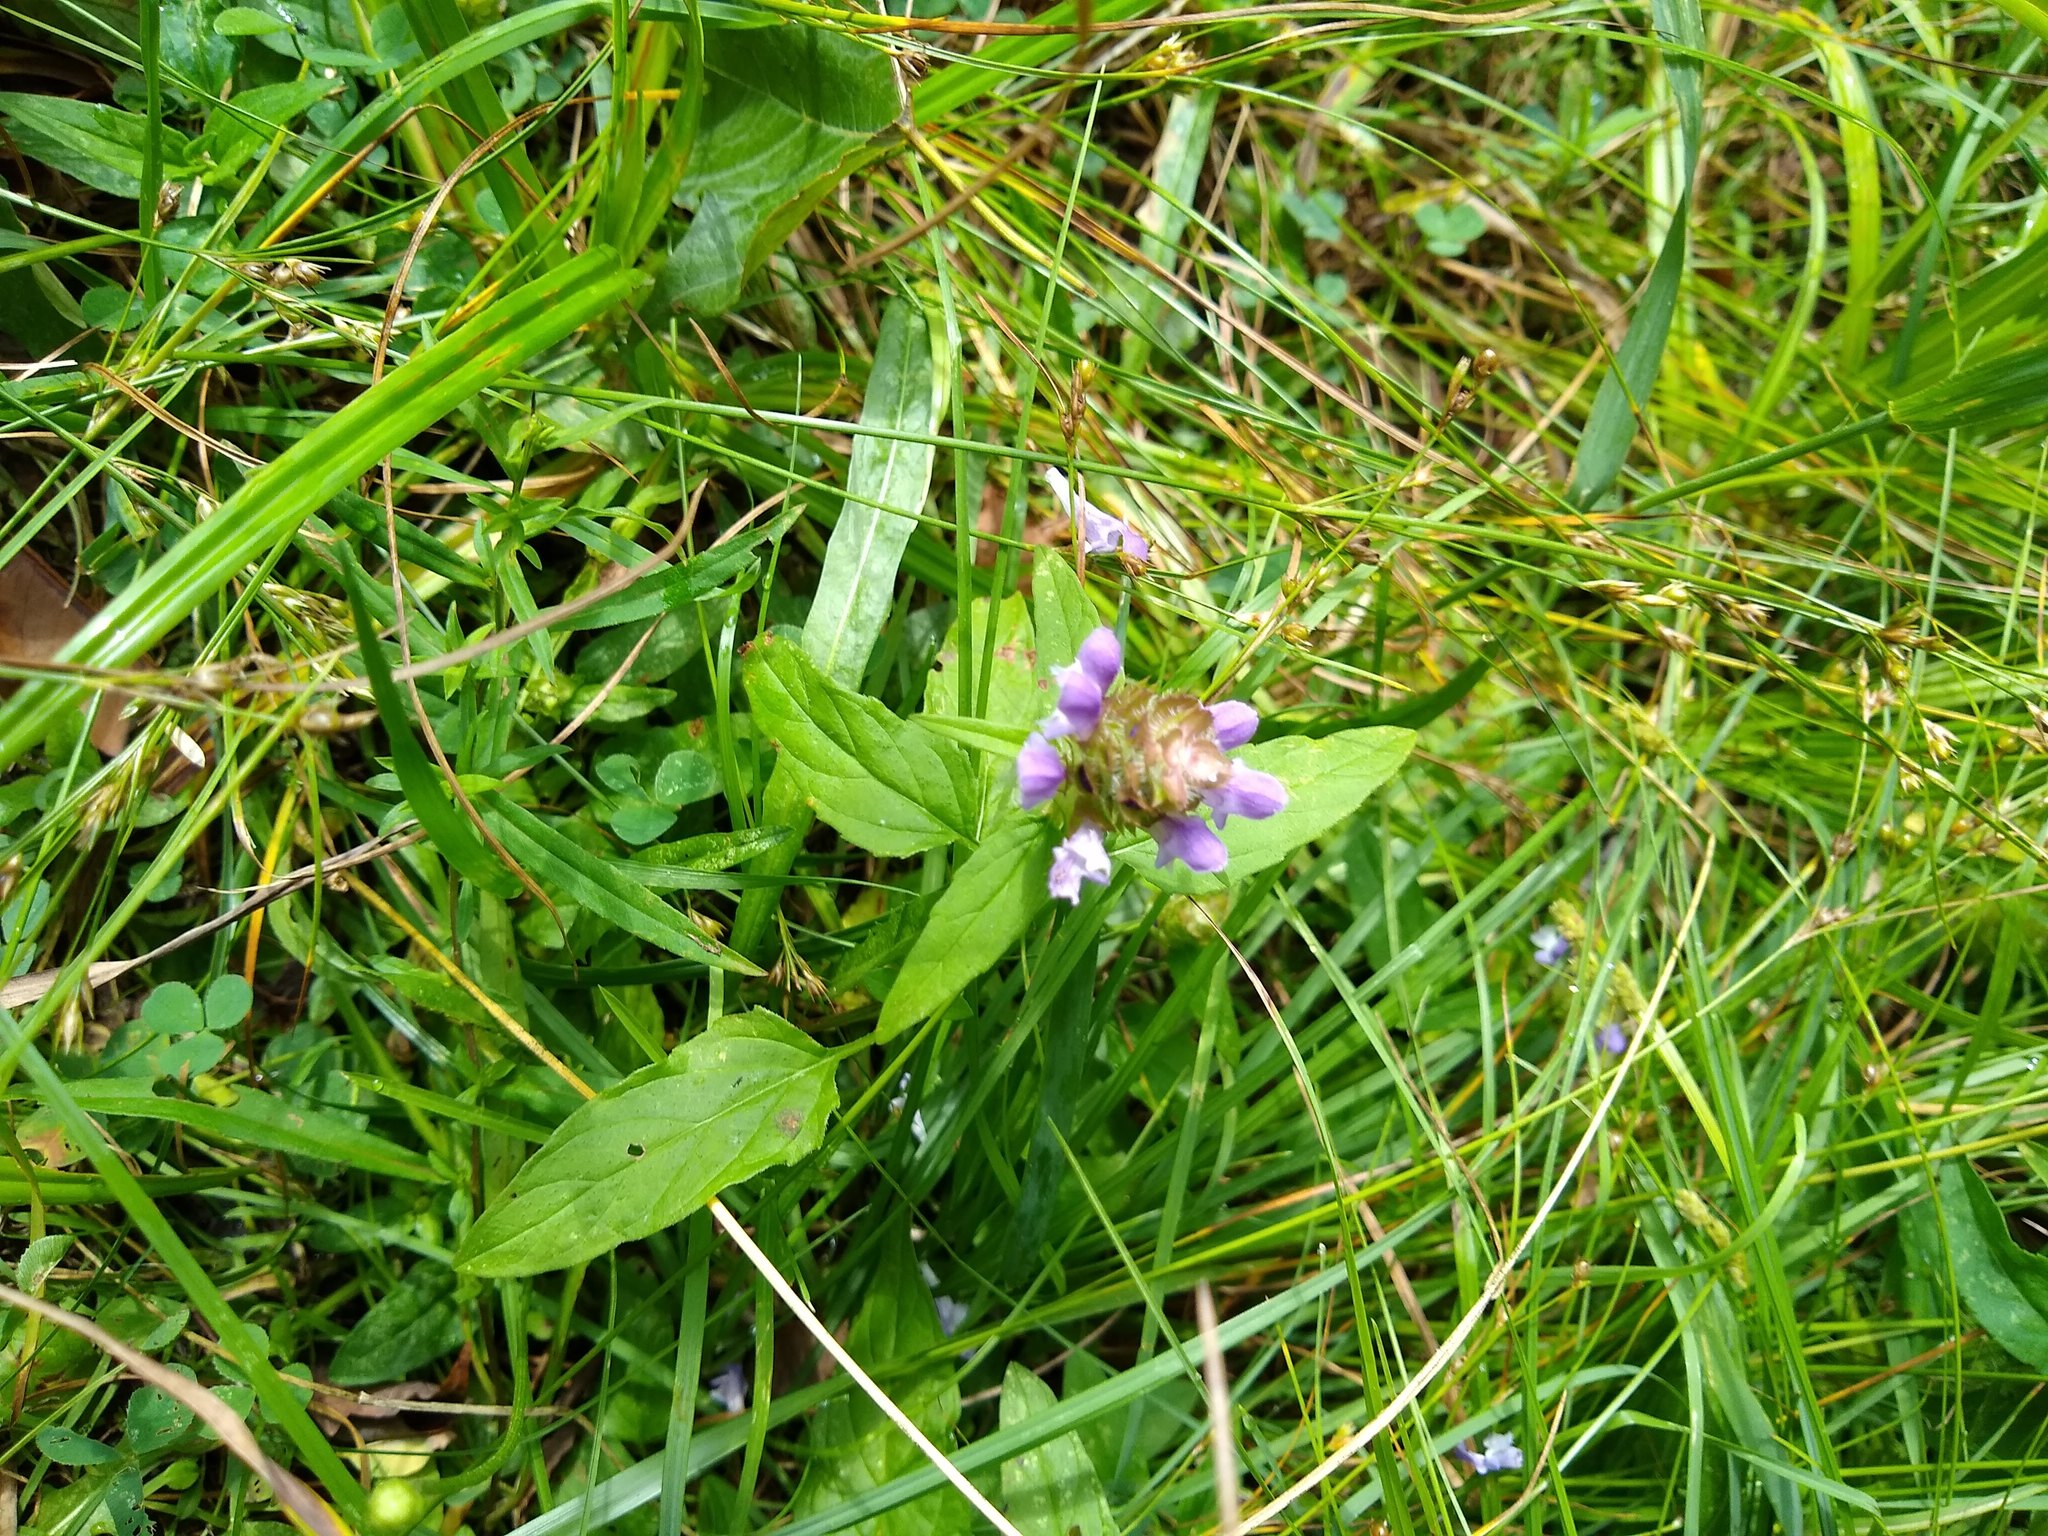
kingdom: Plantae
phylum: Tracheophyta
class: Magnoliopsida
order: Lamiales
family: Lamiaceae
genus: Prunella
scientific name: Prunella vulgaris
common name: Heal-all
